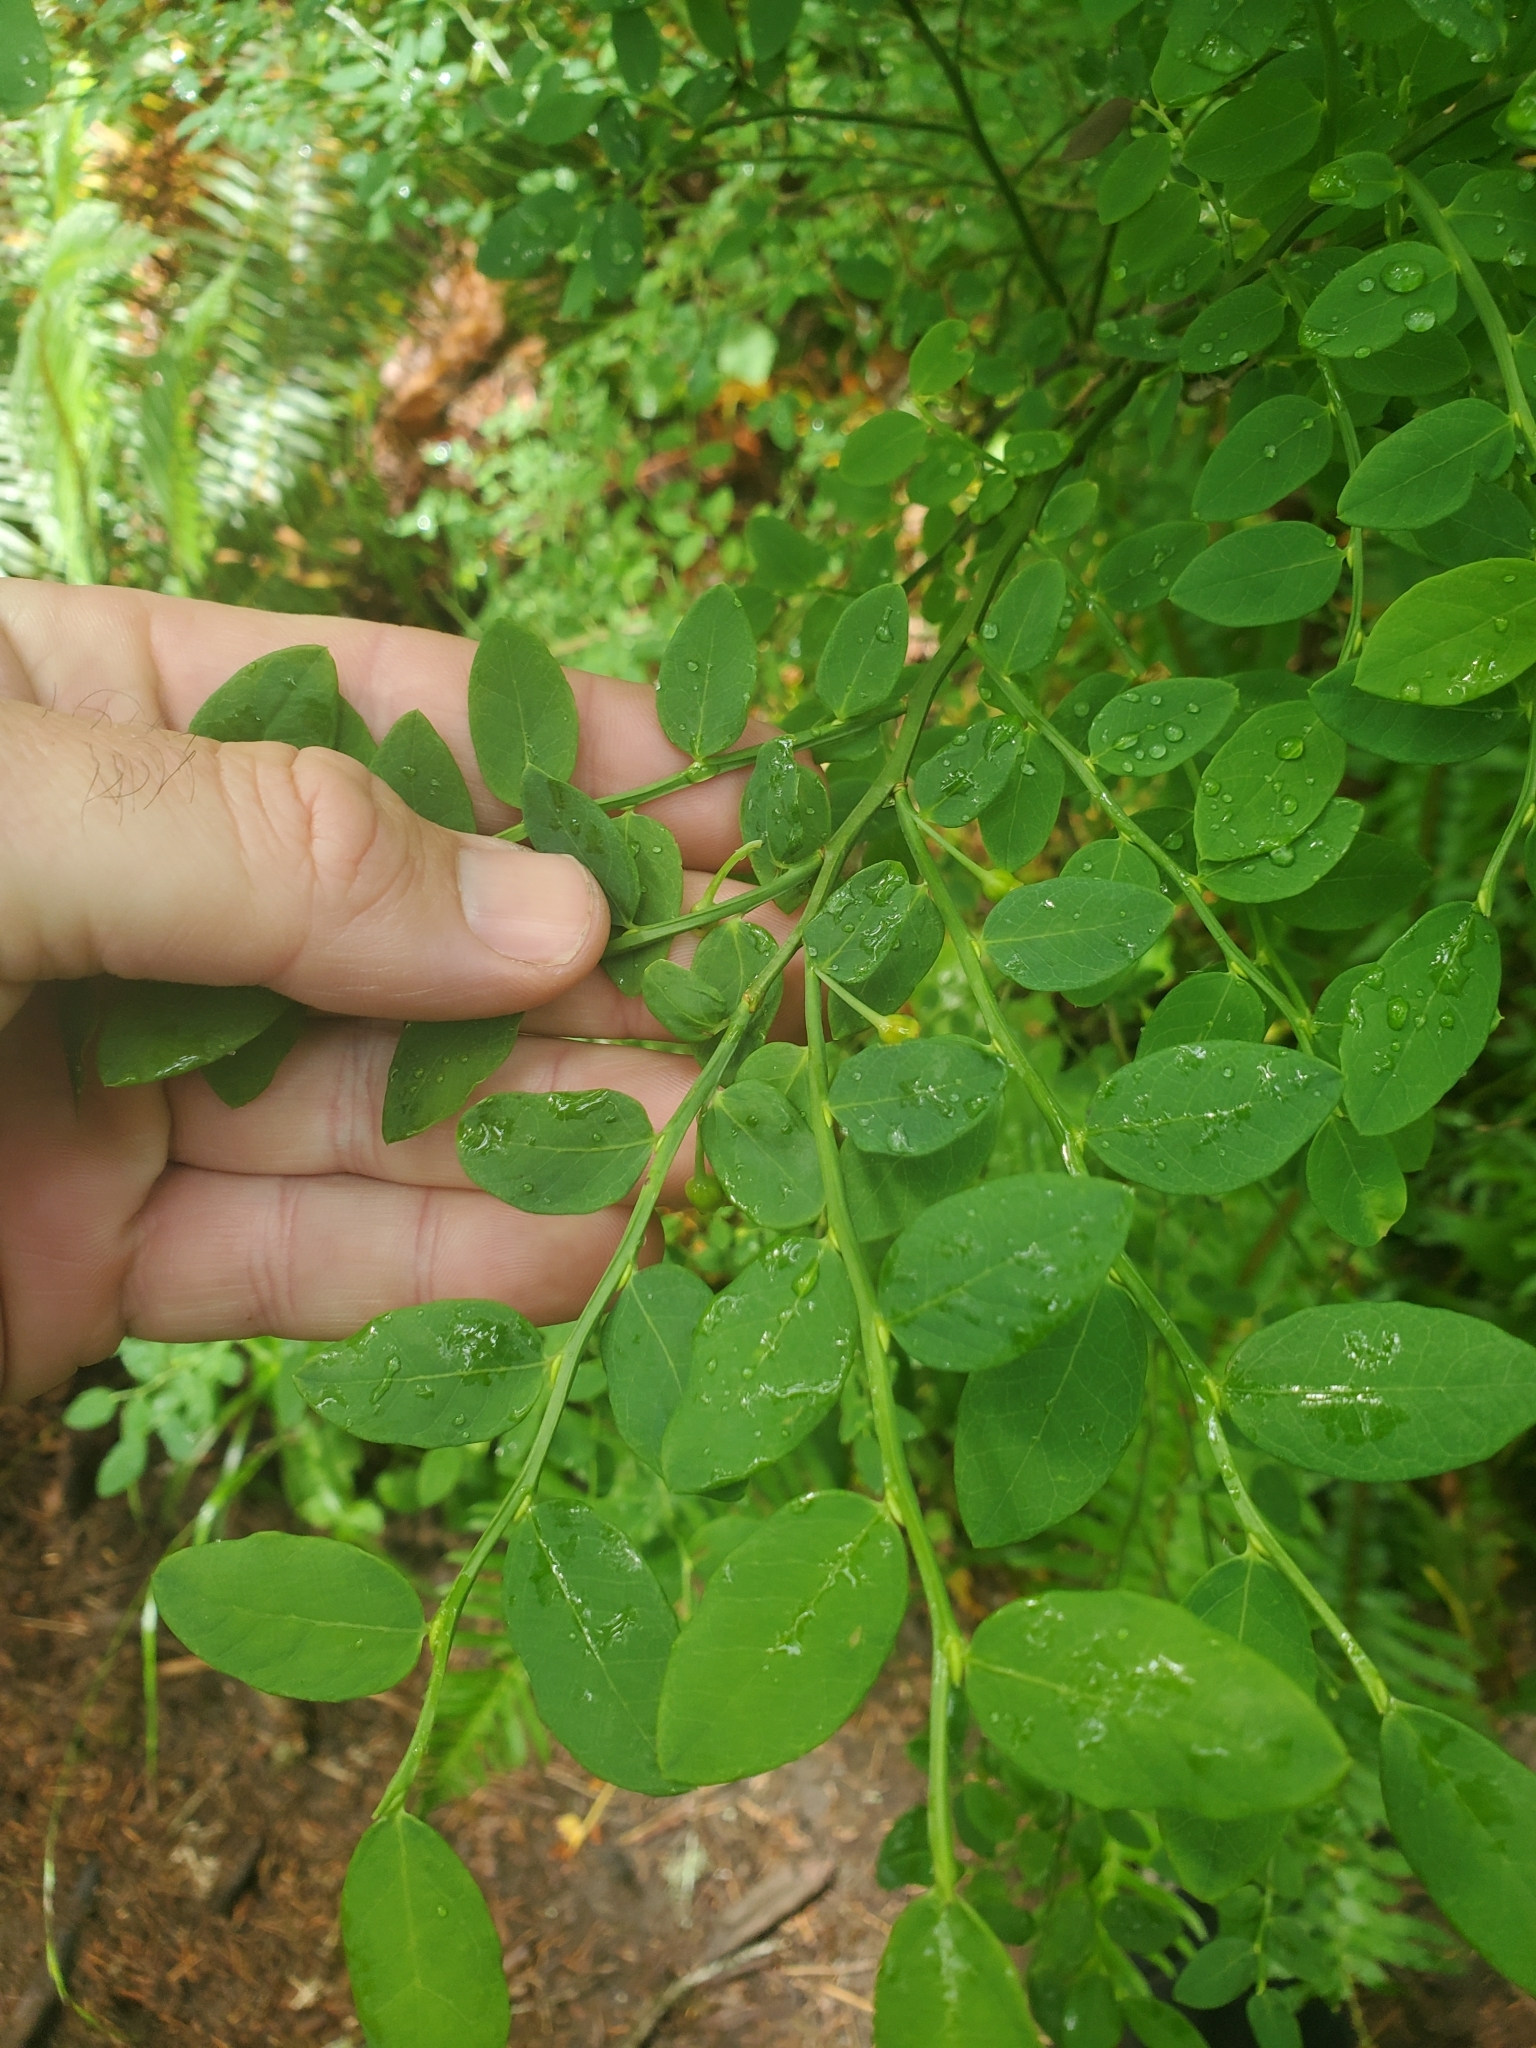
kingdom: Plantae
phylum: Tracheophyta
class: Magnoliopsida
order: Ericales
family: Ericaceae
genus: Vaccinium
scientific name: Vaccinium parvifolium
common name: Red-huckleberry
